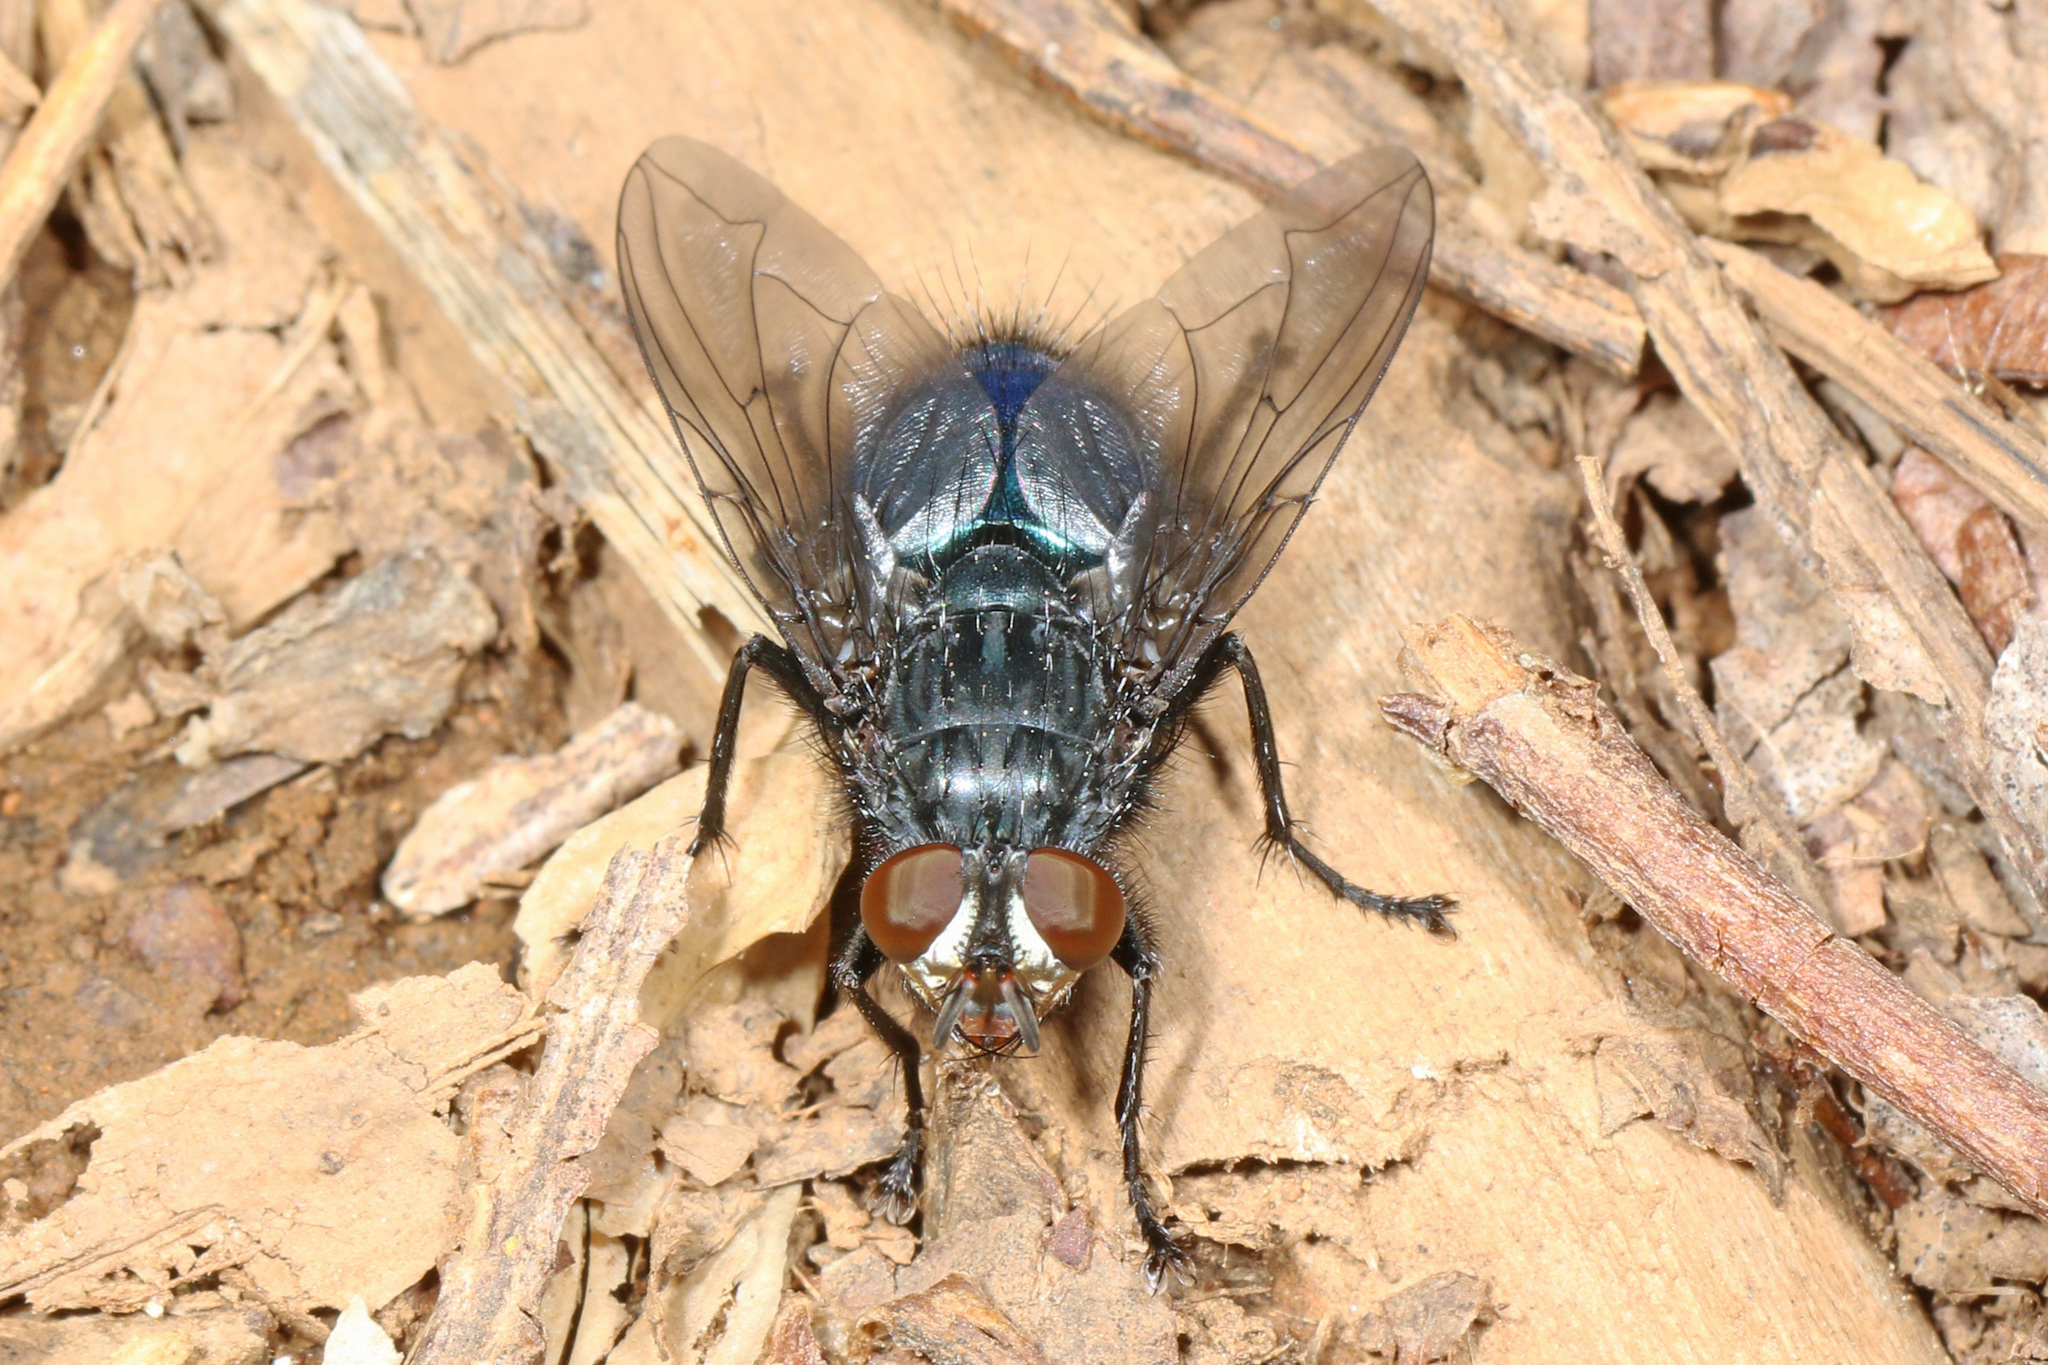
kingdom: Animalia
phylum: Arthropoda
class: Insecta
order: Diptera
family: Calliphoridae
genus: Cynomya
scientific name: Cynomya cadaverina
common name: Shiny blue bottle fly
